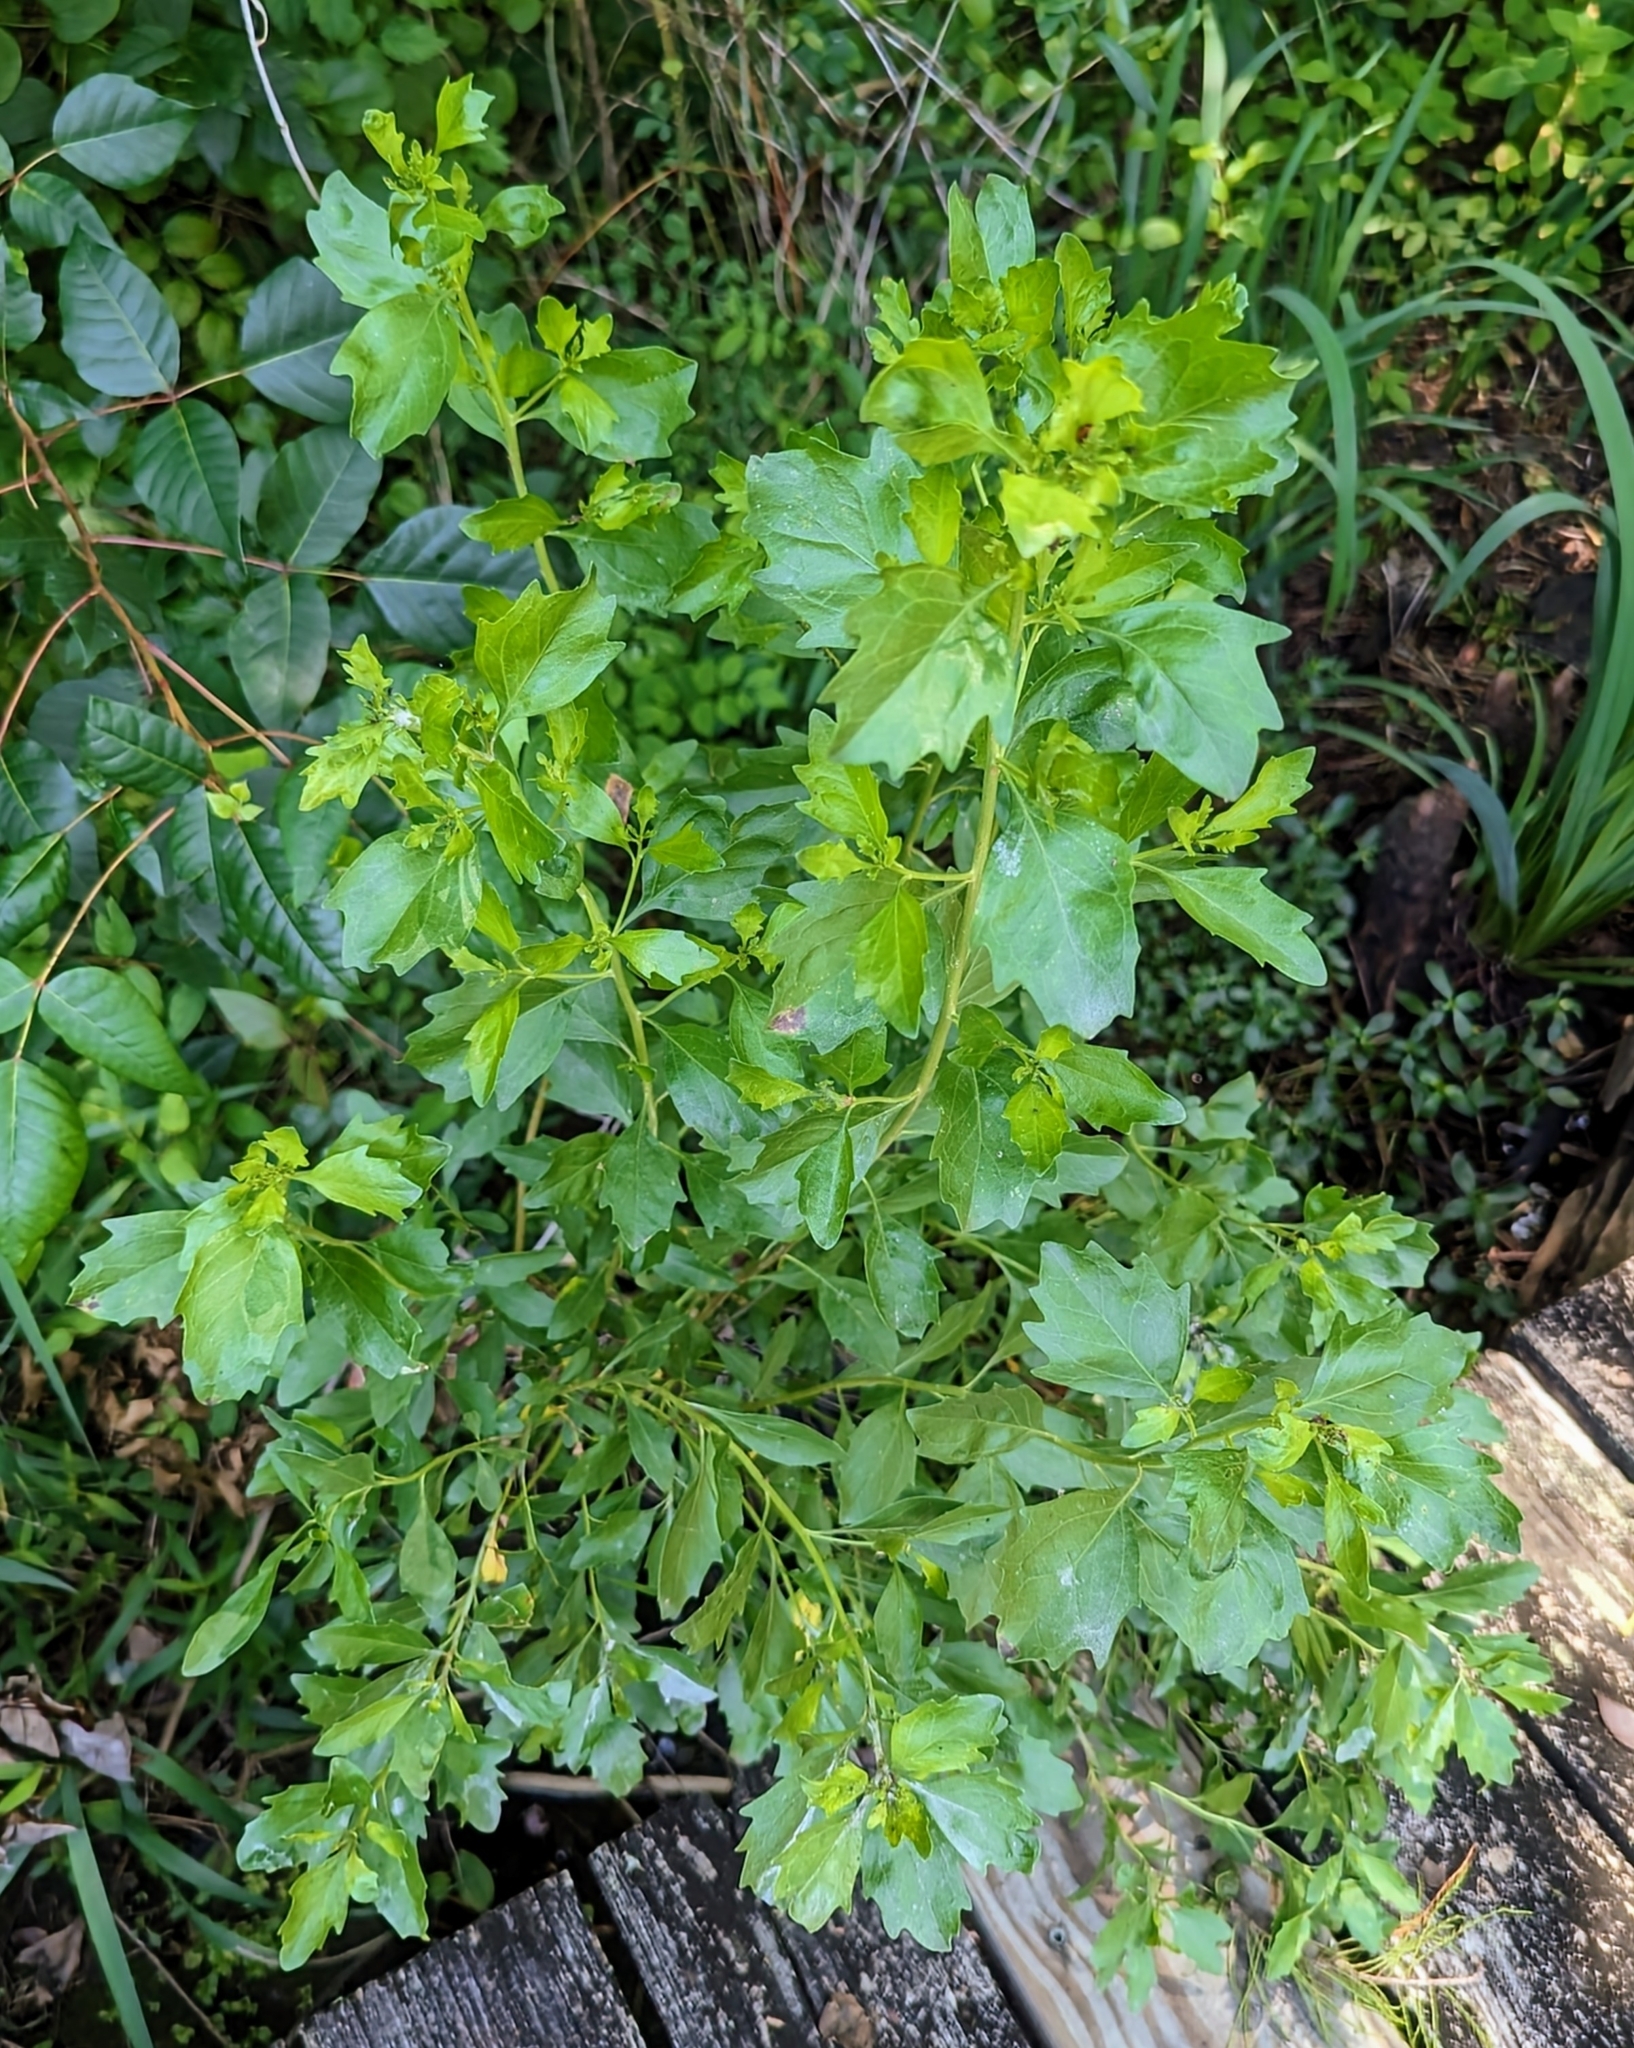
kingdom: Plantae
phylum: Tracheophyta
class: Magnoliopsida
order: Asterales
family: Asteraceae
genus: Baccharis
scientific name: Baccharis halimifolia
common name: Eastern baccharis
